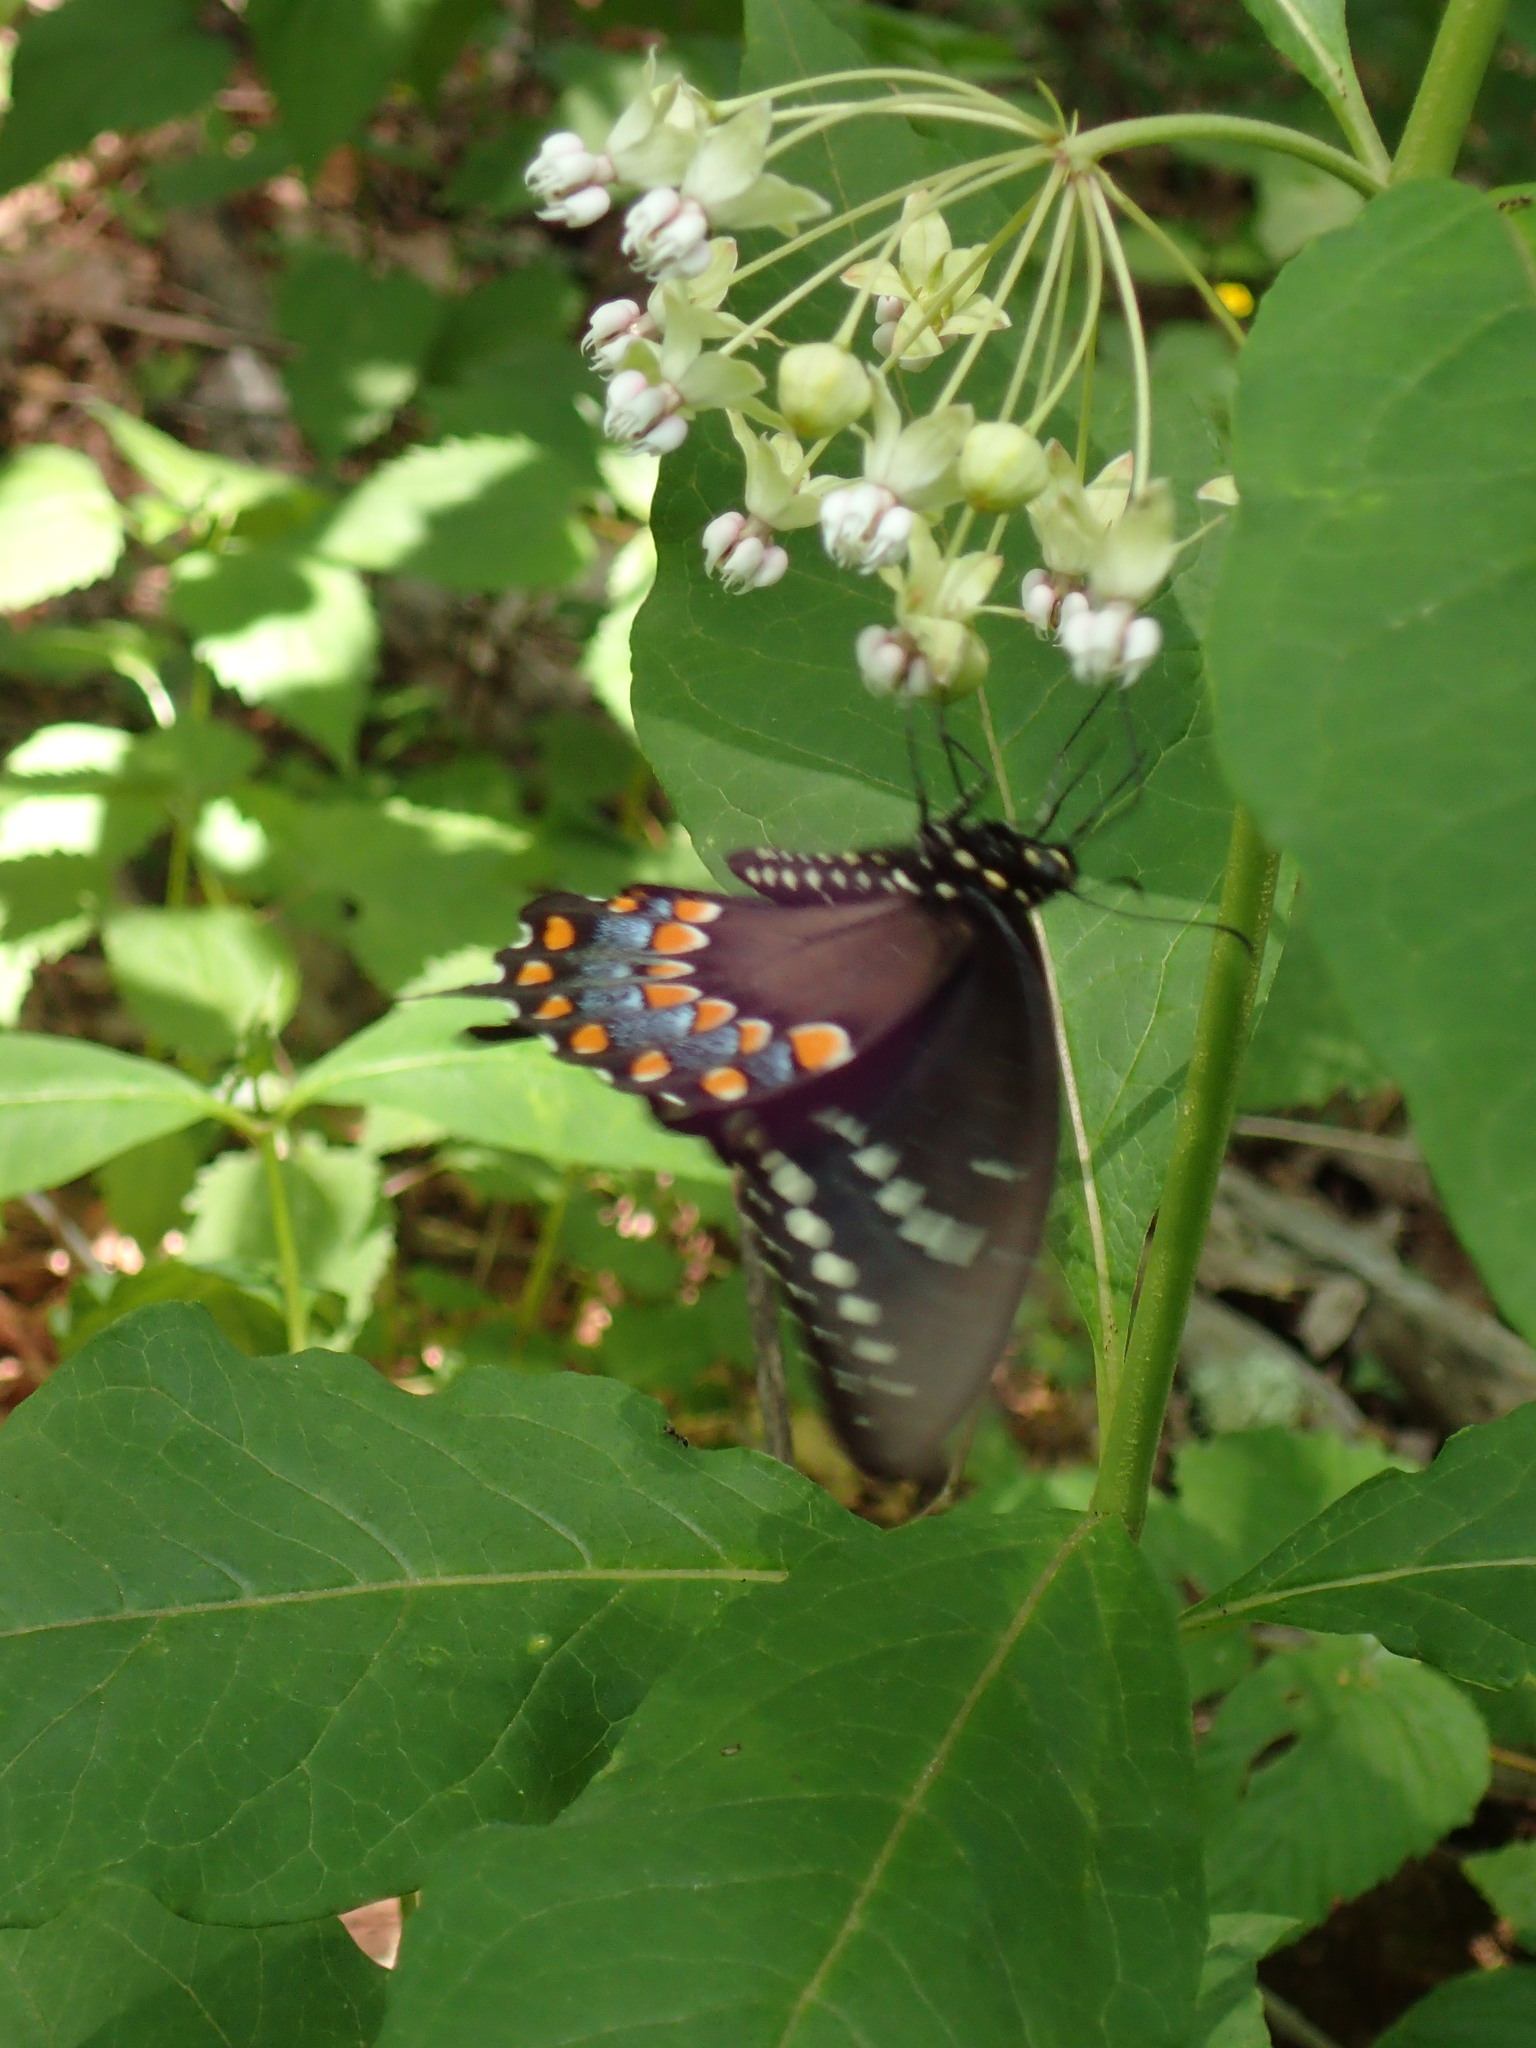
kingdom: Plantae
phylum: Tracheophyta
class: Magnoliopsida
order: Gentianales
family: Apocynaceae
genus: Asclepias
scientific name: Asclepias exaltata
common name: Poke milkweed
